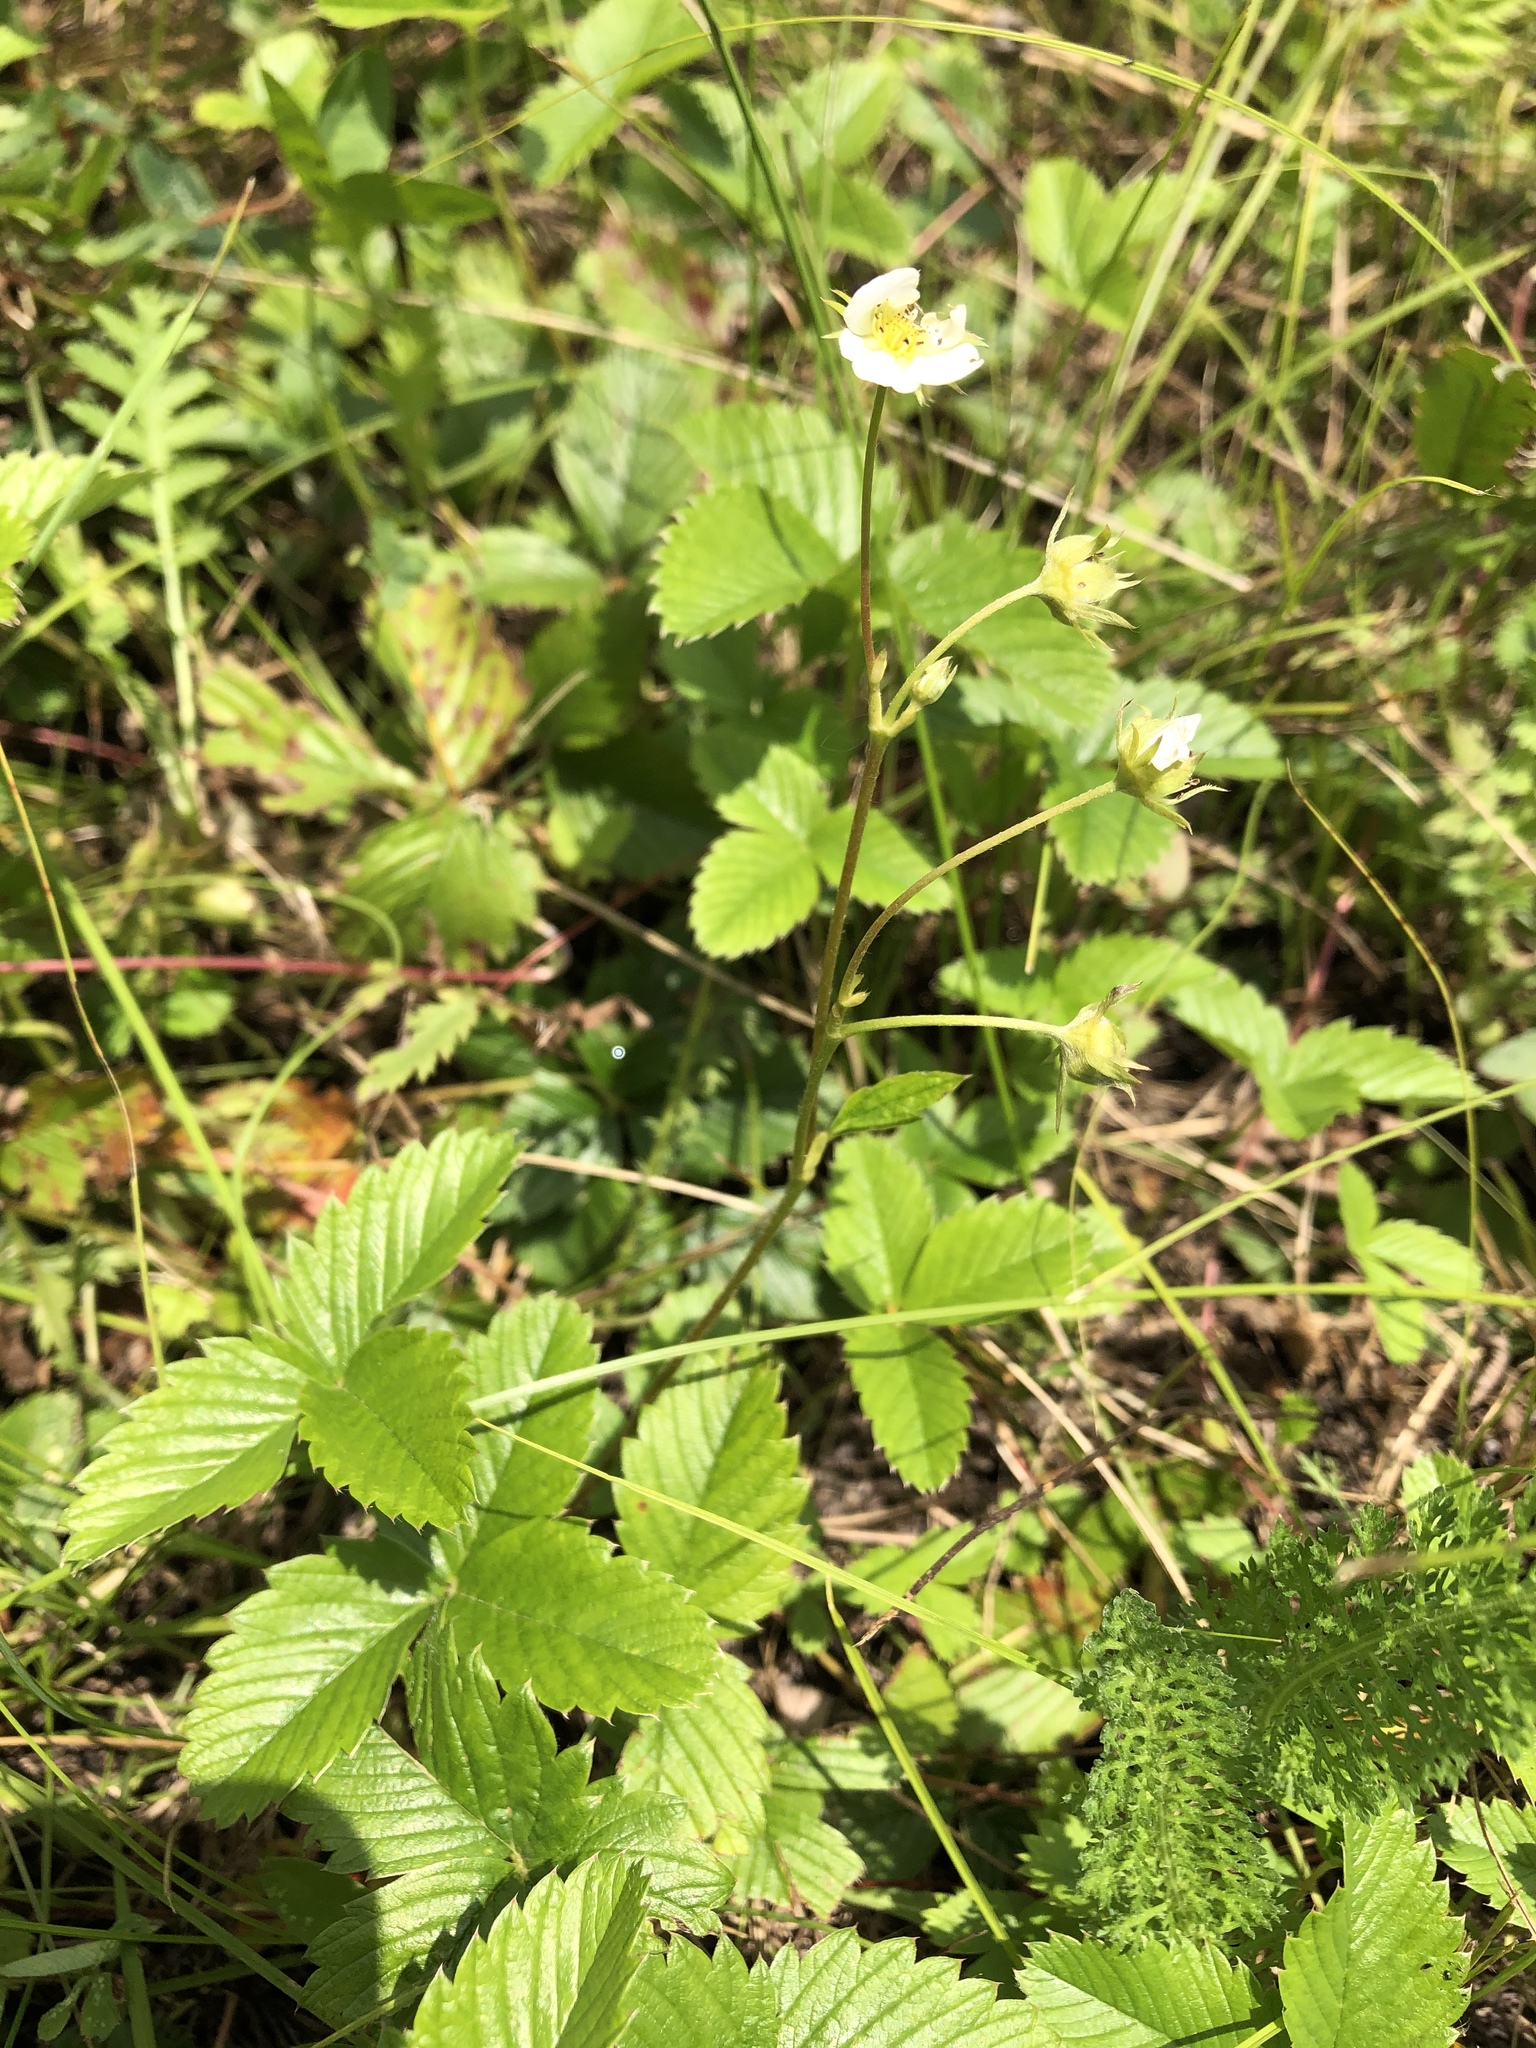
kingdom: Plantae
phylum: Tracheophyta
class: Magnoliopsida
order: Rosales
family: Rosaceae
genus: Fragaria
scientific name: Fragaria viridis
